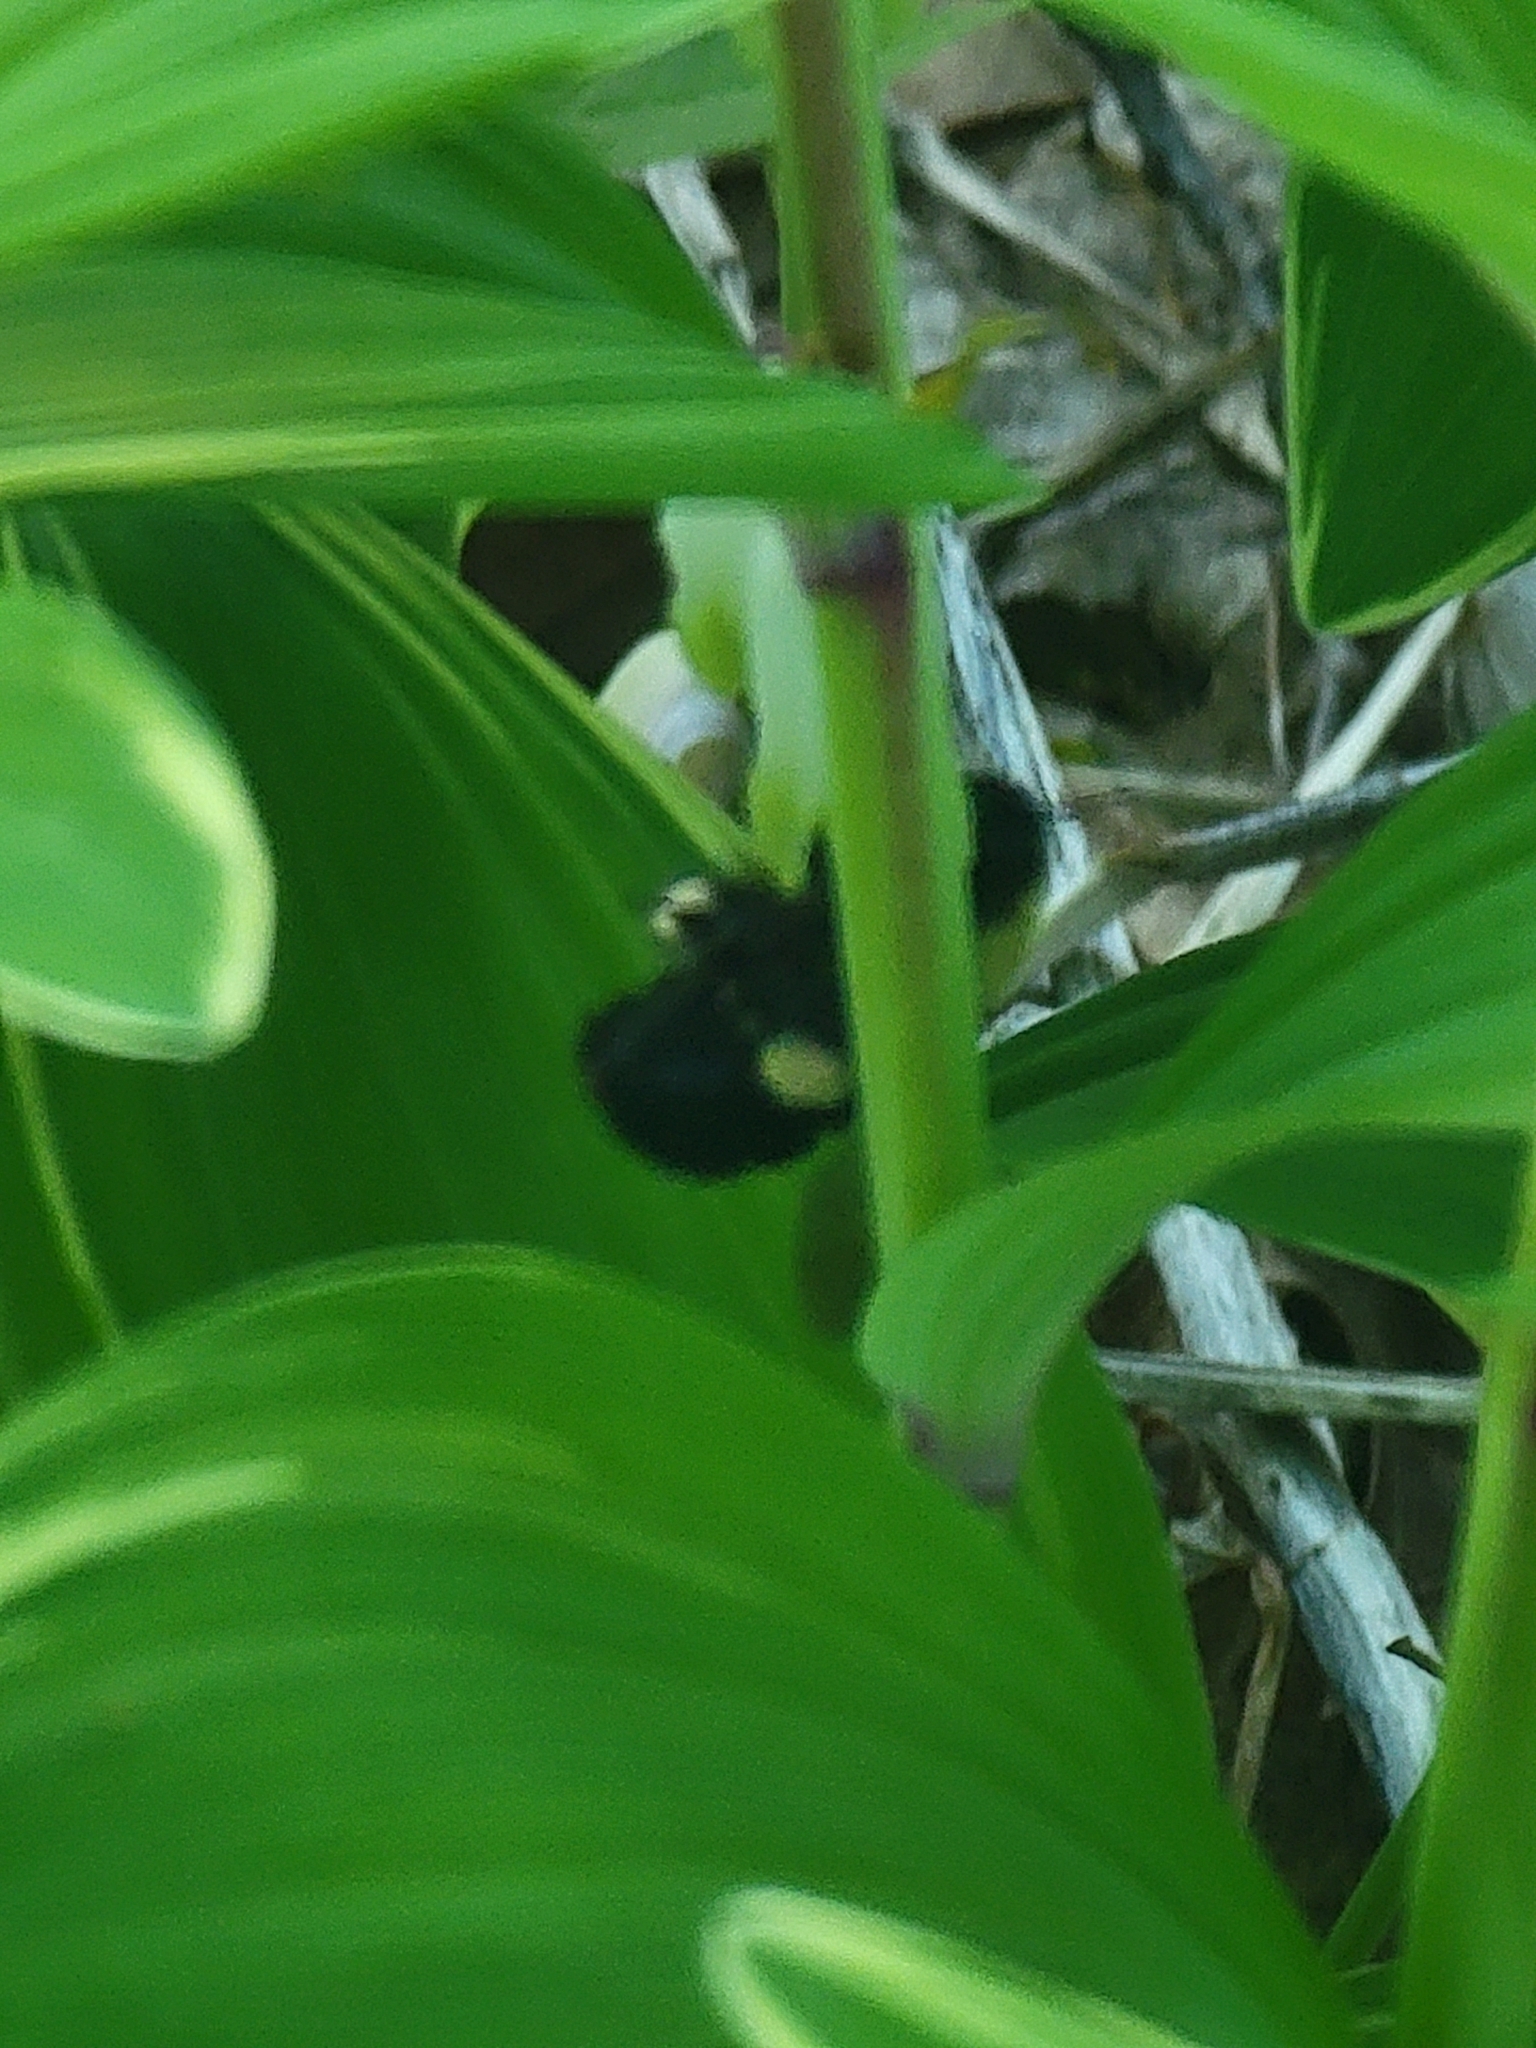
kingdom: Animalia
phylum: Arthropoda
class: Insecta
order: Hymenoptera
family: Apidae
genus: Bombus
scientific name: Bombus
